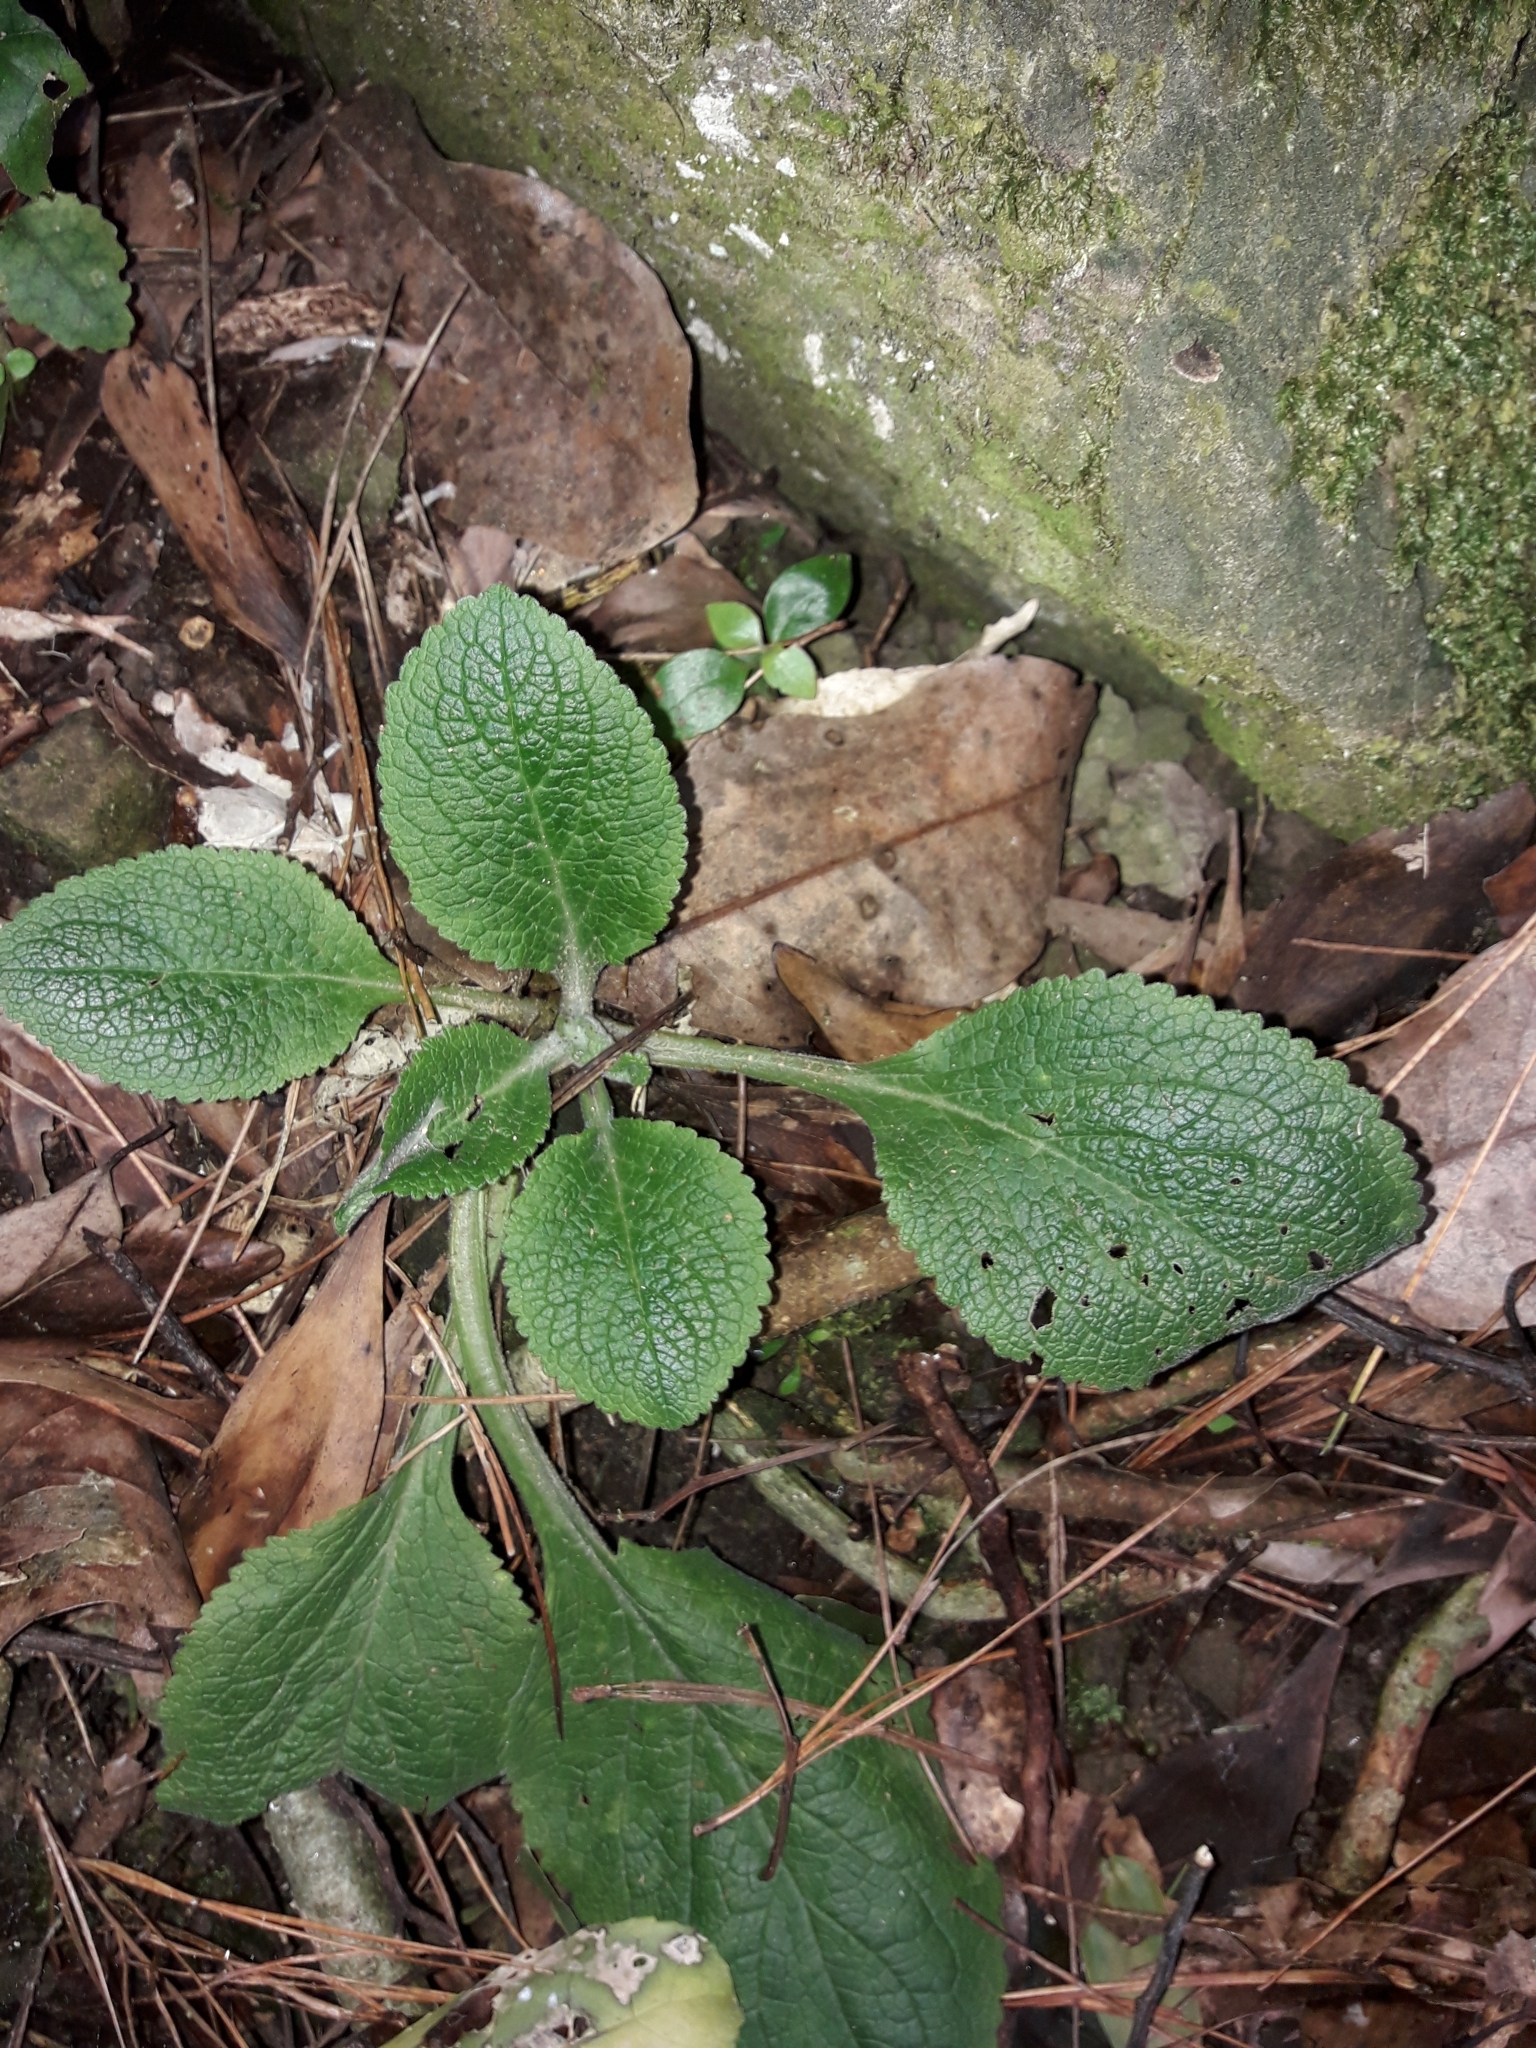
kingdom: Plantae
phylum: Tracheophyta
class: Magnoliopsida
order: Lamiales
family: Plantaginaceae
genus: Digitalis
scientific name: Digitalis purpurea
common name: Foxglove
